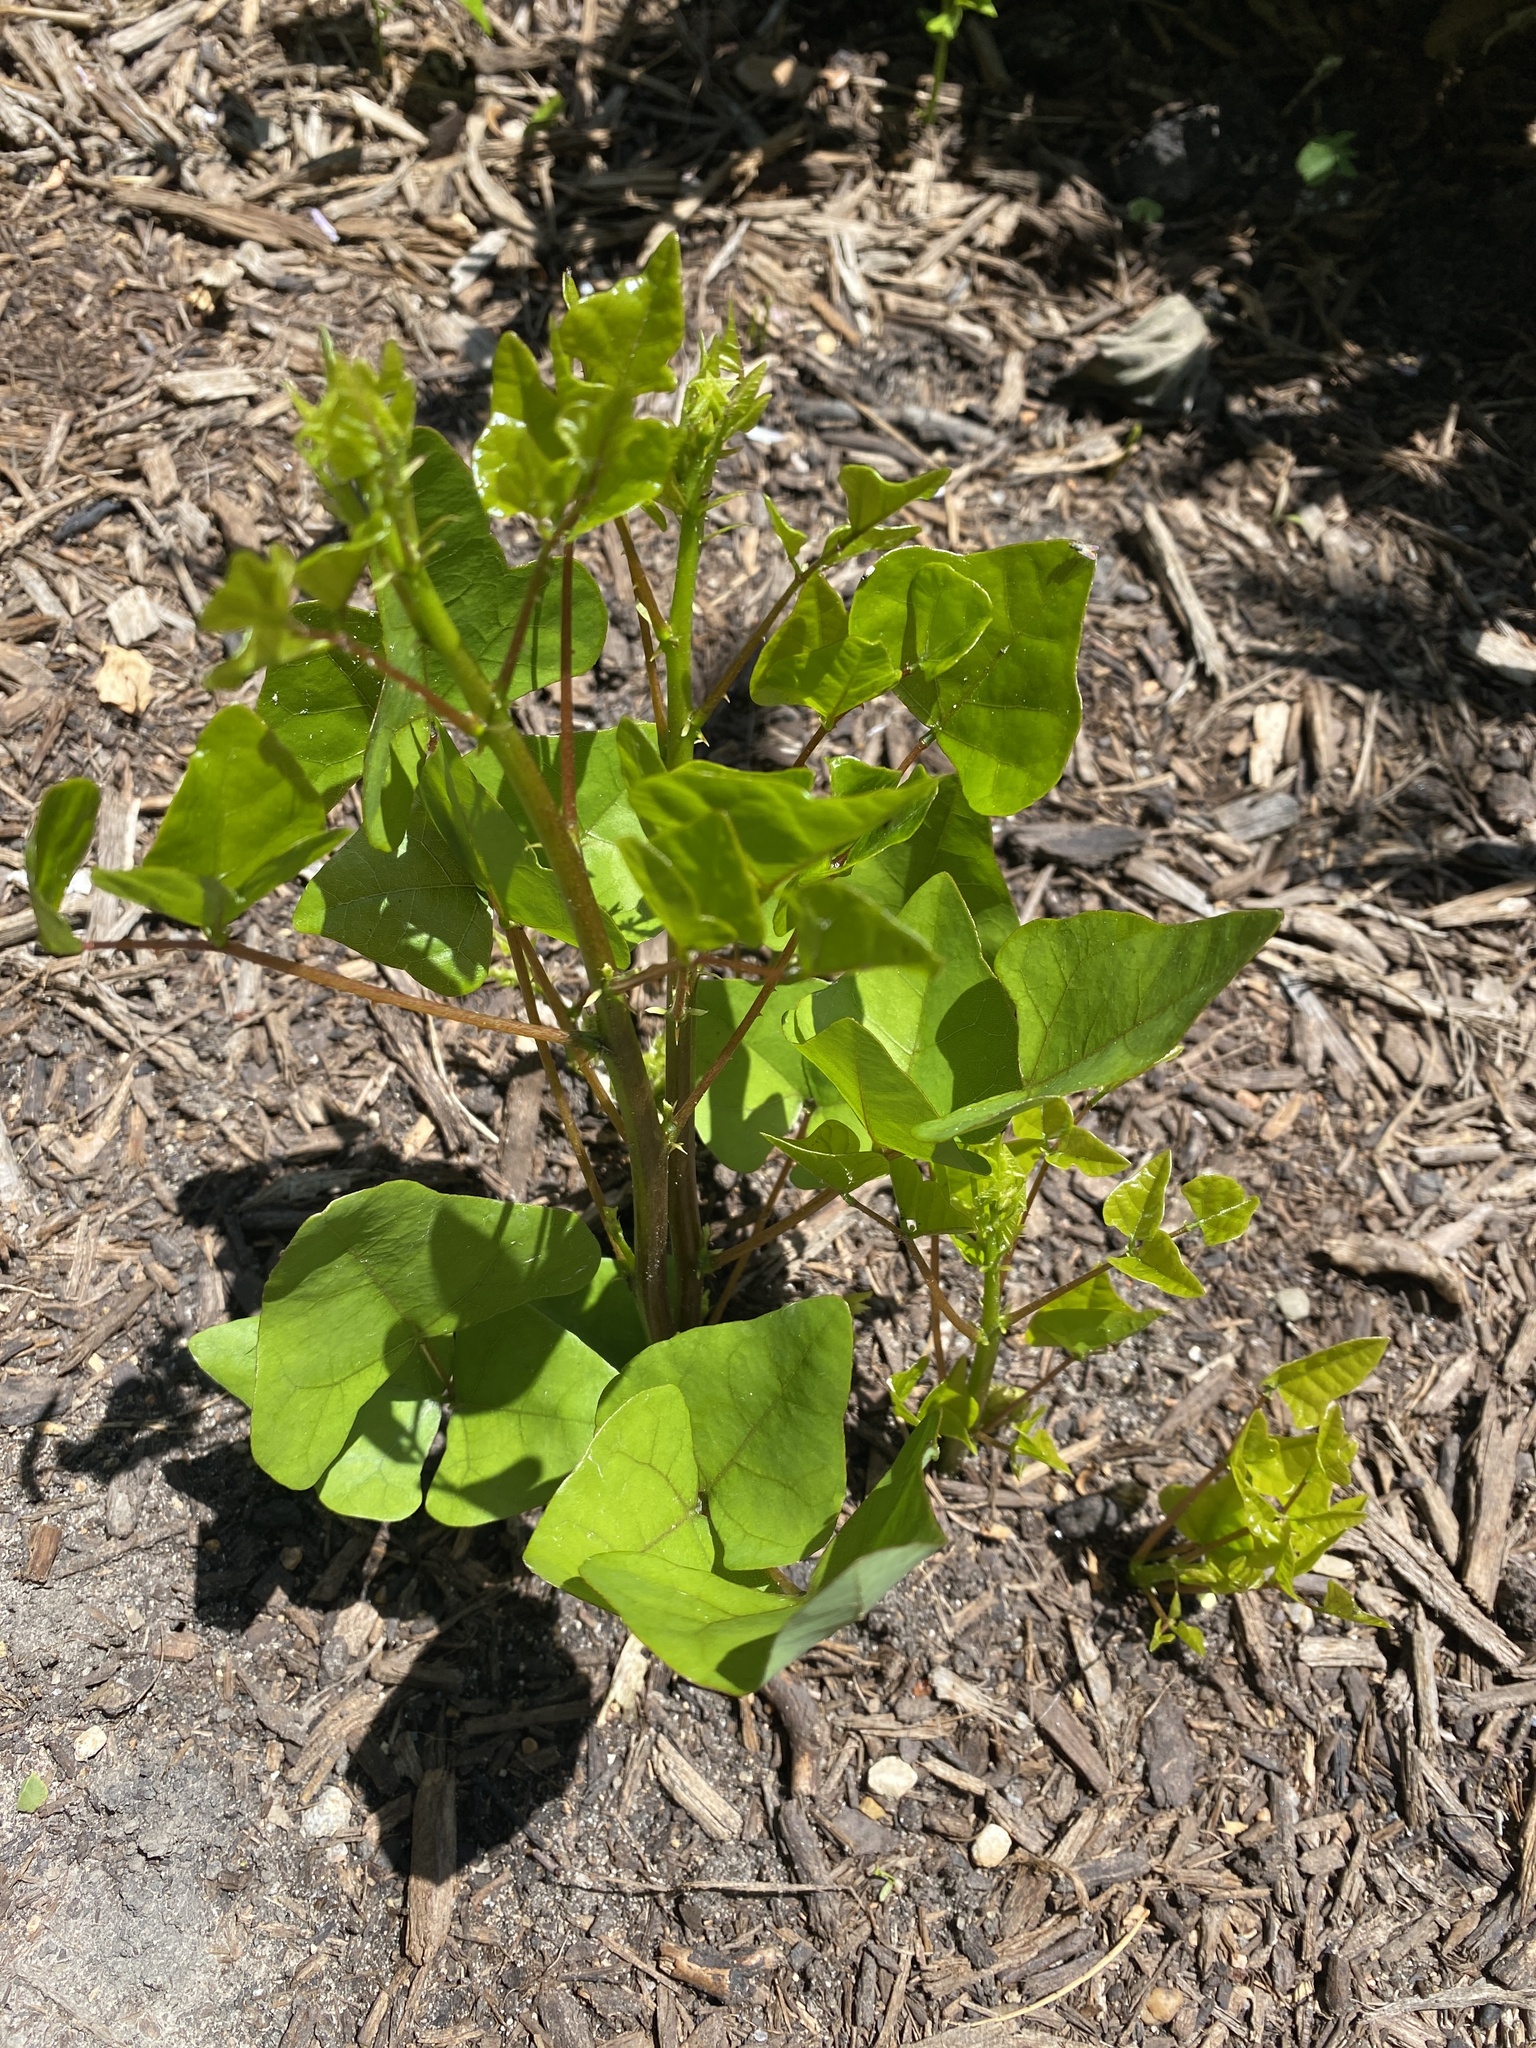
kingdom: Plantae
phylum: Tracheophyta
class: Magnoliopsida
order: Fabales
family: Fabaceae
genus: Erythrina
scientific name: Erythrina herbacea
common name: Coral-bean
